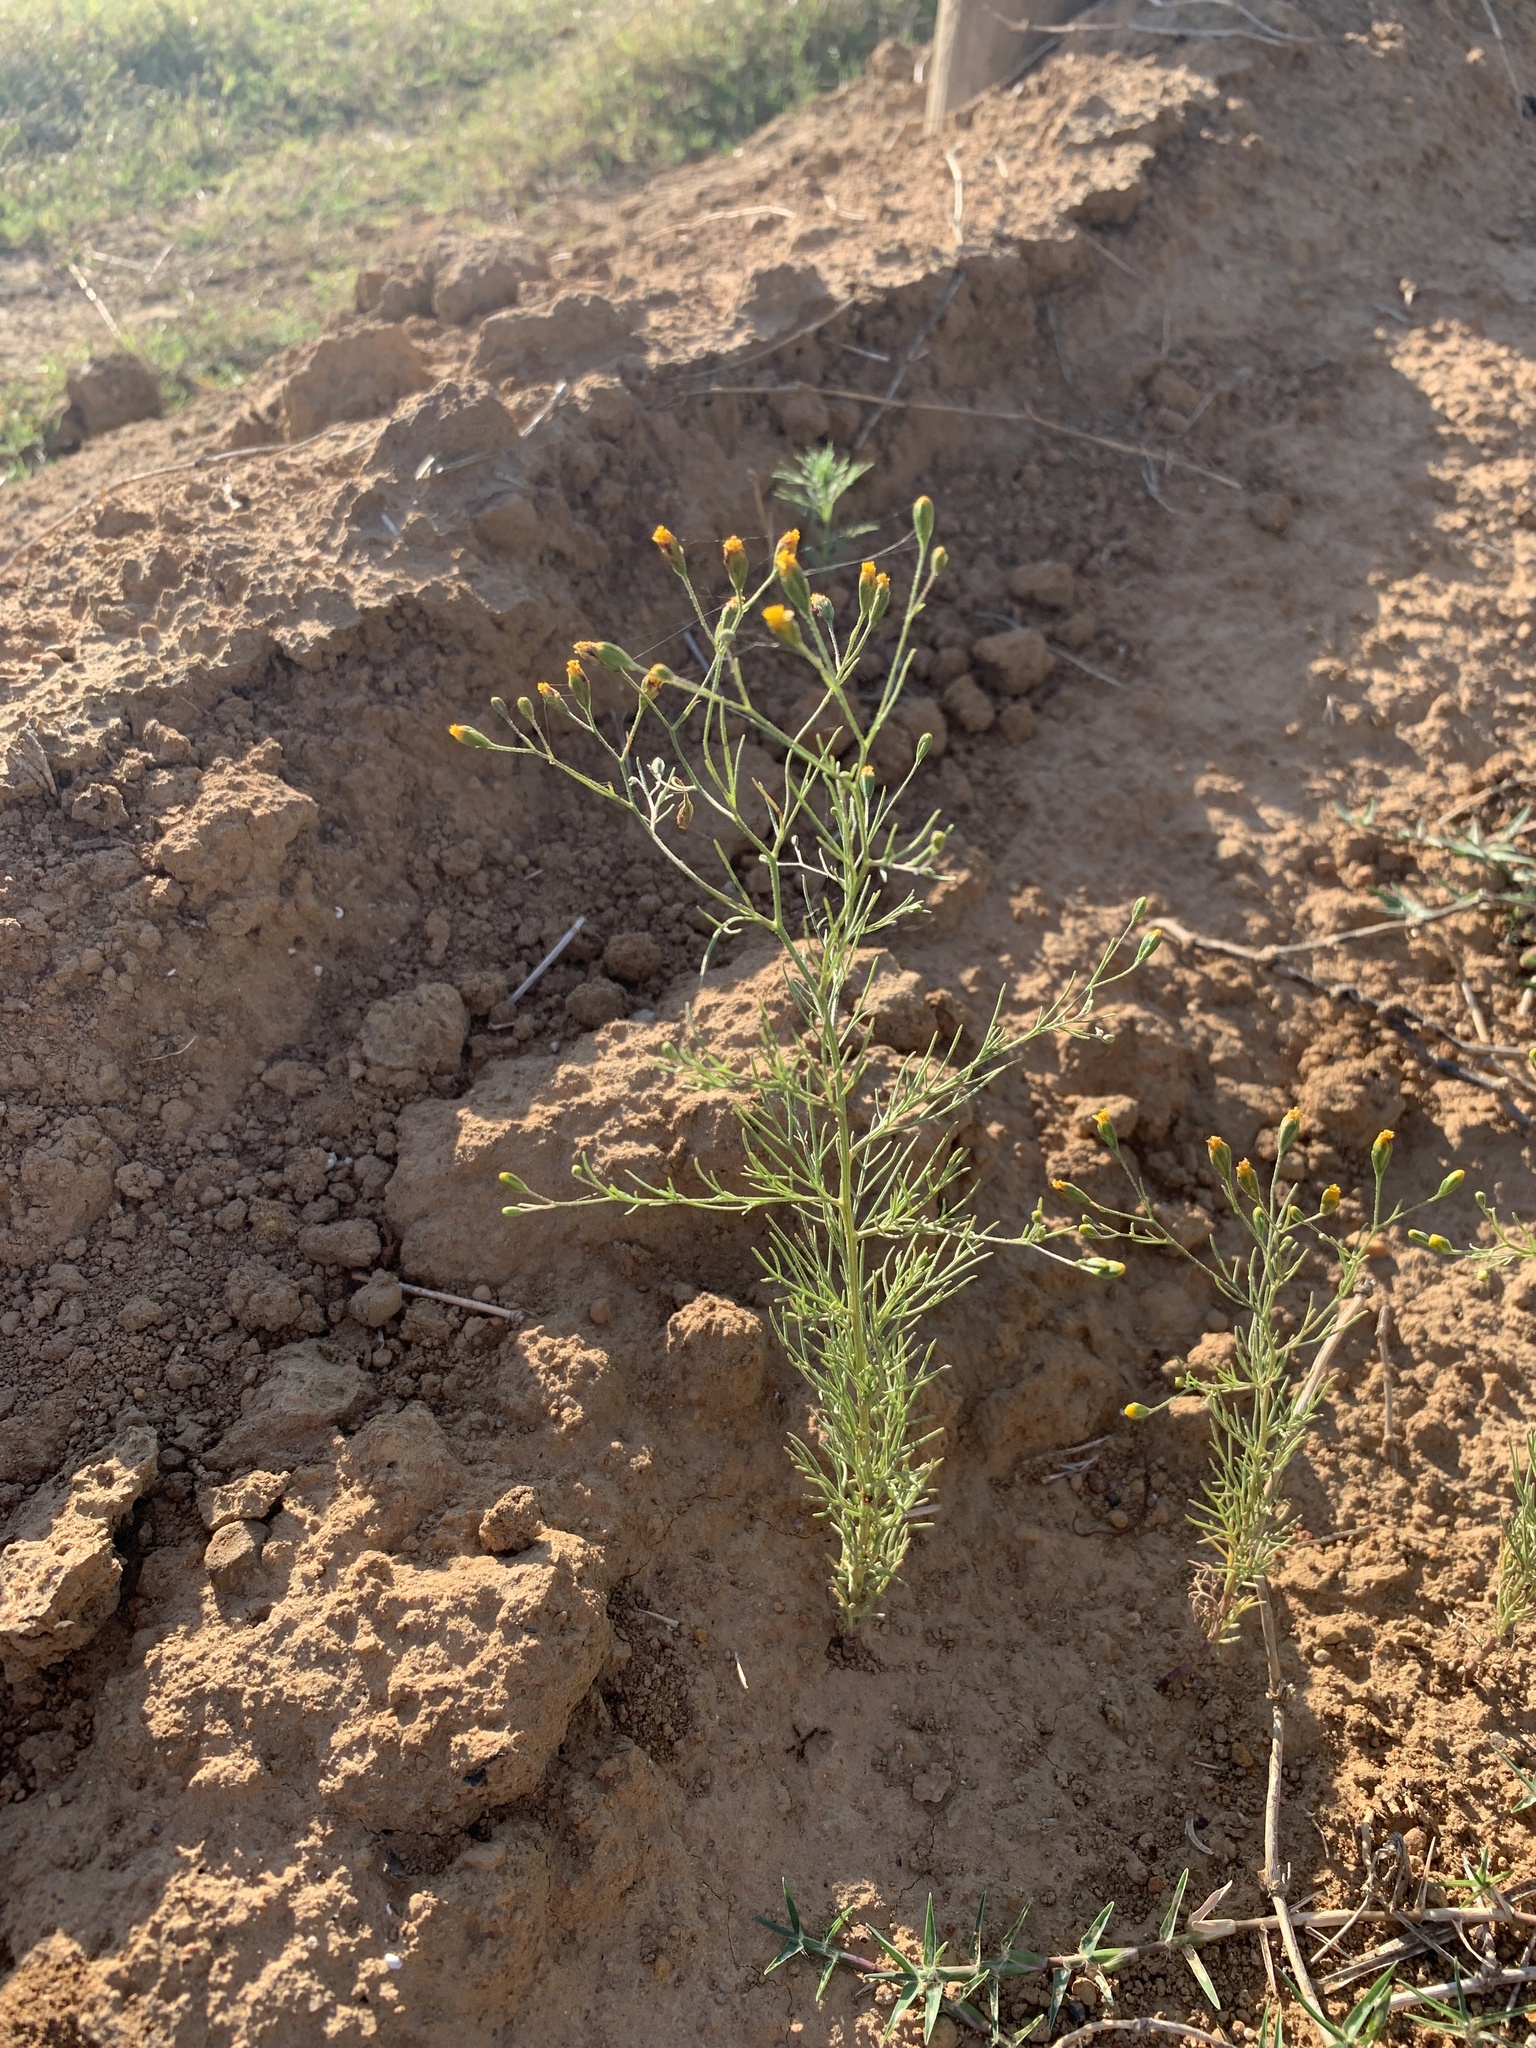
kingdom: Plantae
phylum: Tracheophyta
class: Magnoliopsida
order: Asterales
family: Asteraceae
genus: Schkuhria
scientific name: Schkuhria pinnata
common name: Dwarf marigold
